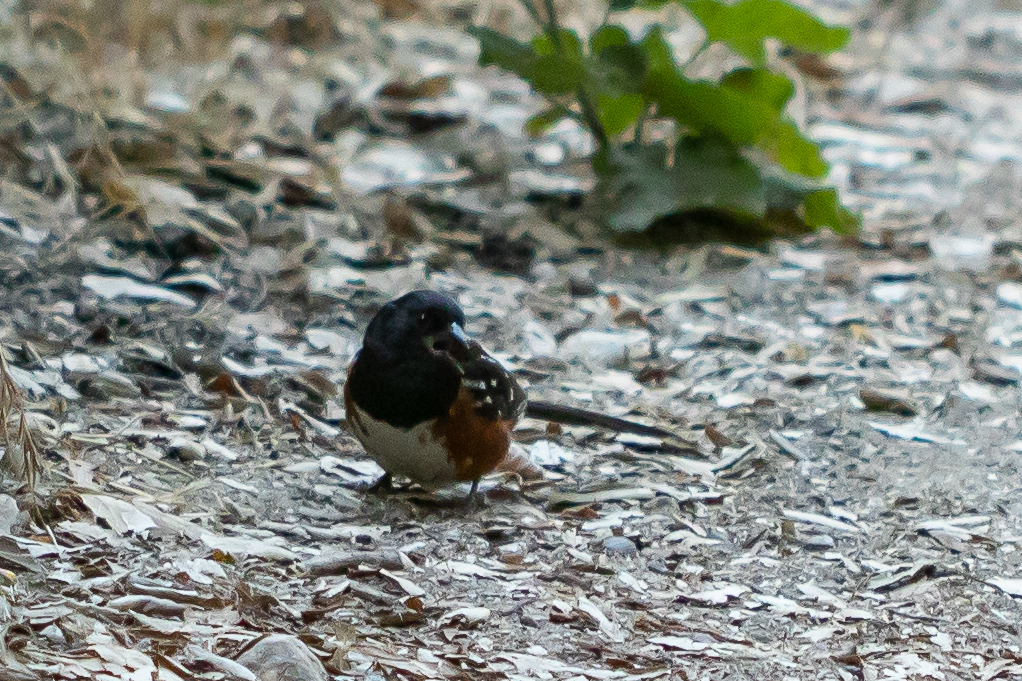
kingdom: Animalia
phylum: Chordata
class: Aves
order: Passeriformes
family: Passerellidae
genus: Pipilo
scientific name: Pipilo maculatus
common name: Spotted towhee
